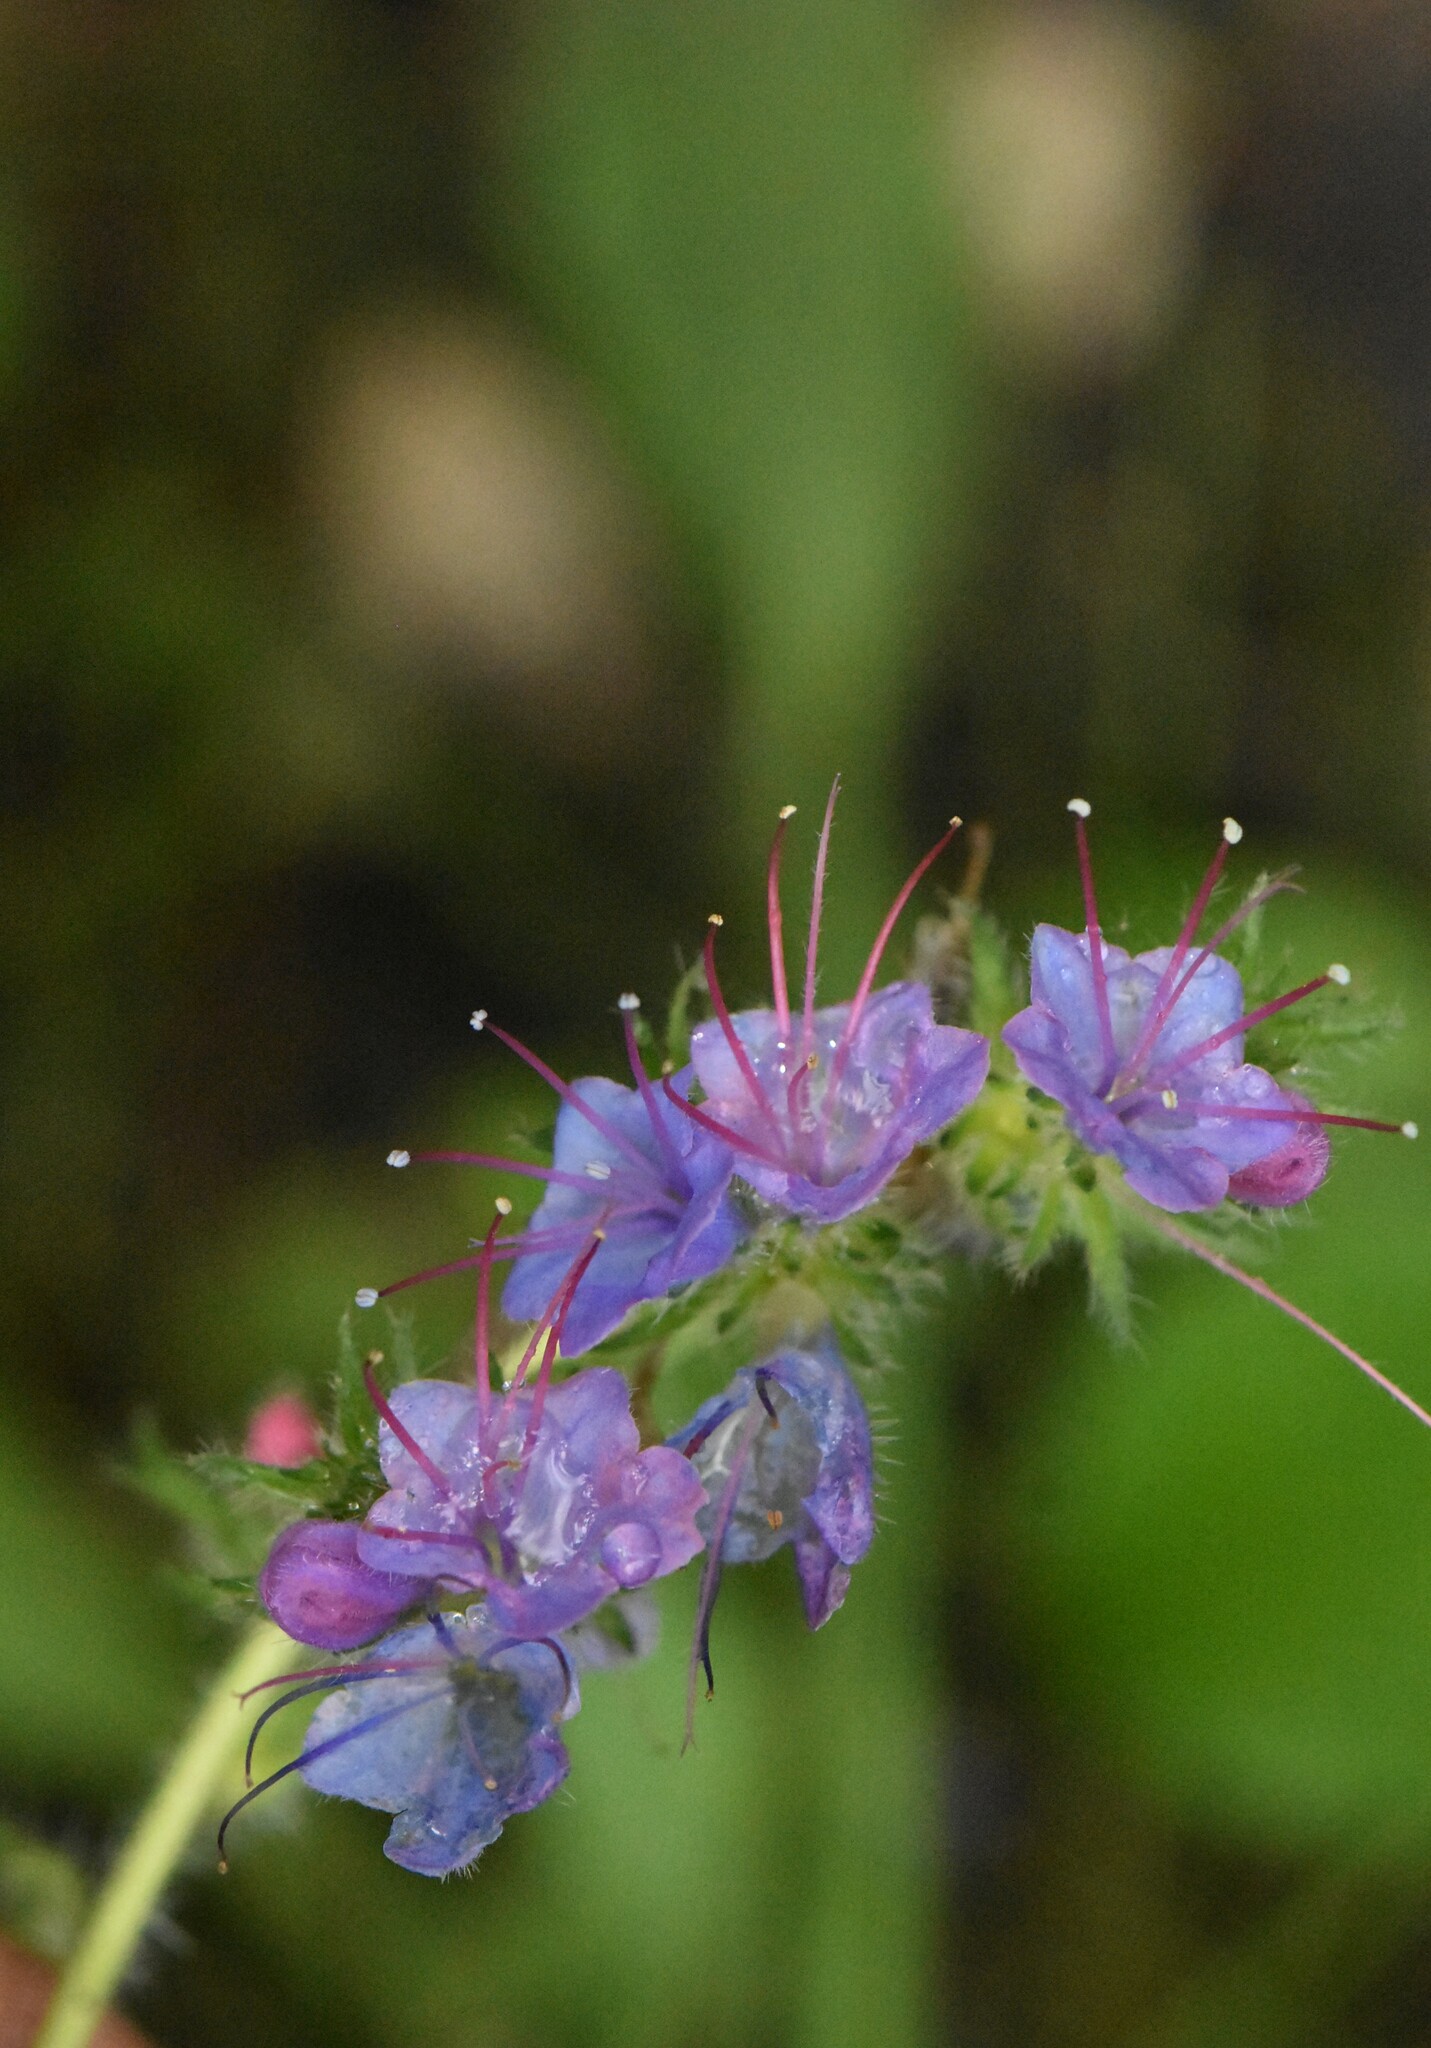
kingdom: Plantae
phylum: Tracheophyta
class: Magnoliopsida
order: Boraginales
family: Boraginaceae
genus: Echium
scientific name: Echium vulgare
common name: Common viper's bugloss
